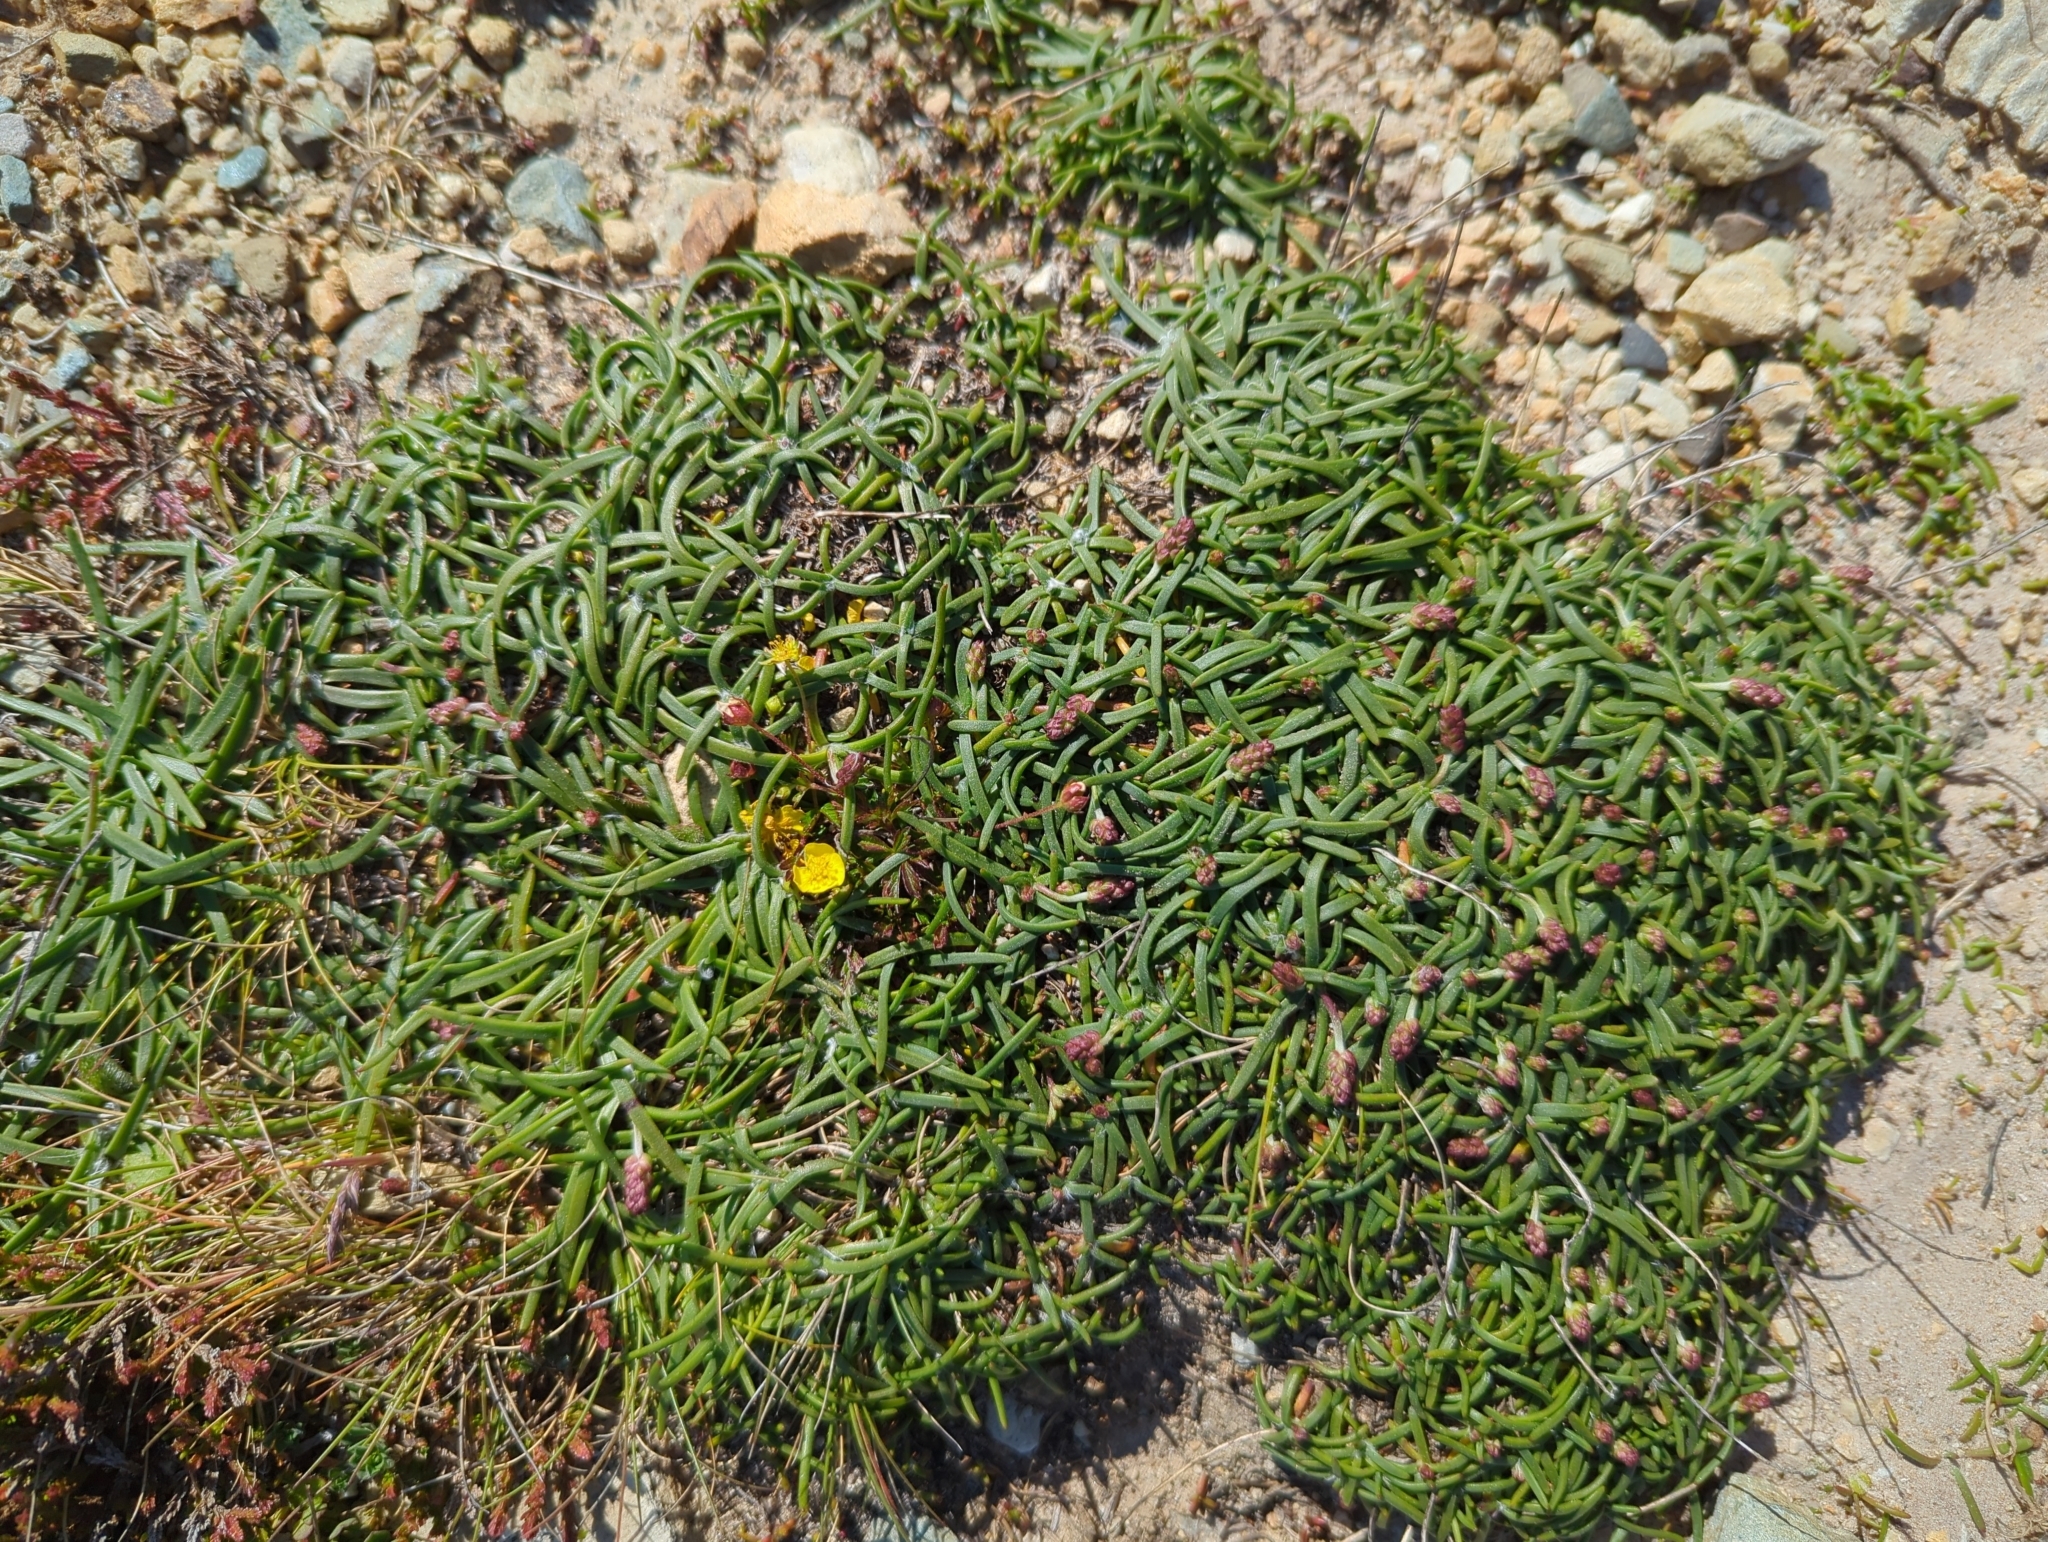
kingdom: Plantae
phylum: Tracheophyta
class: Magnoliopsida
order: Caryophyllales
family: Plumbaginaceae
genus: Armeria
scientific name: Armeria maritima
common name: Thrift
